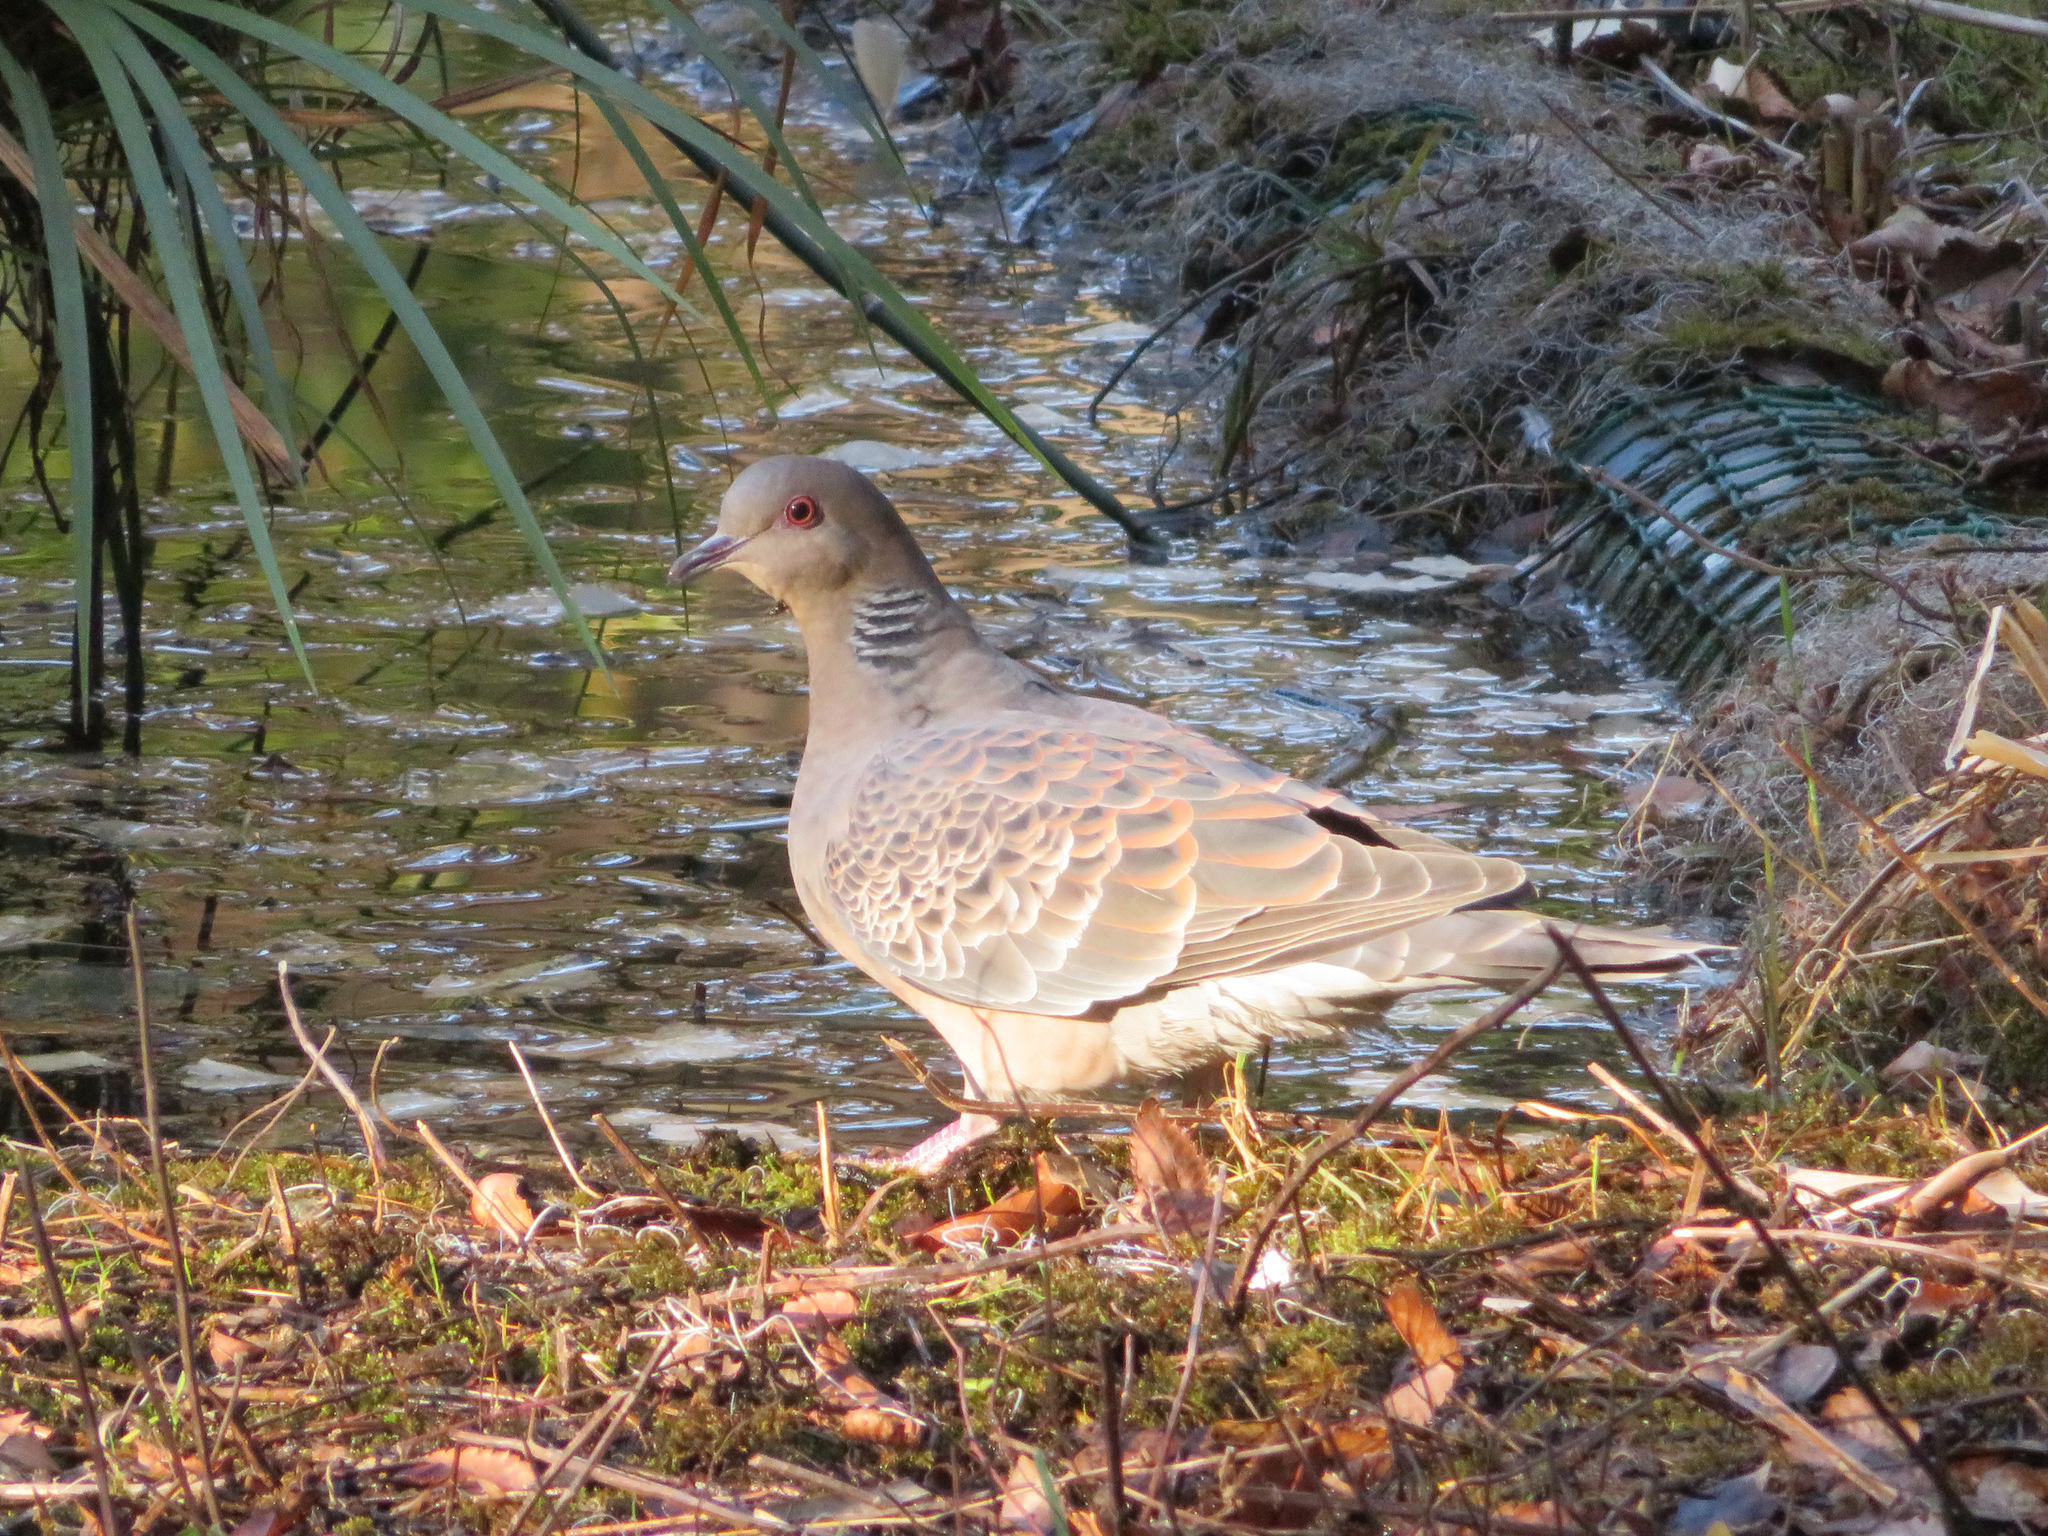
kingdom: Animalia
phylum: Chordata
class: Aves
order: Columbiformes
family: Columbidae
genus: Streptopelia
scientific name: Streptopelia orientalis
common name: Oriental turtle dove
